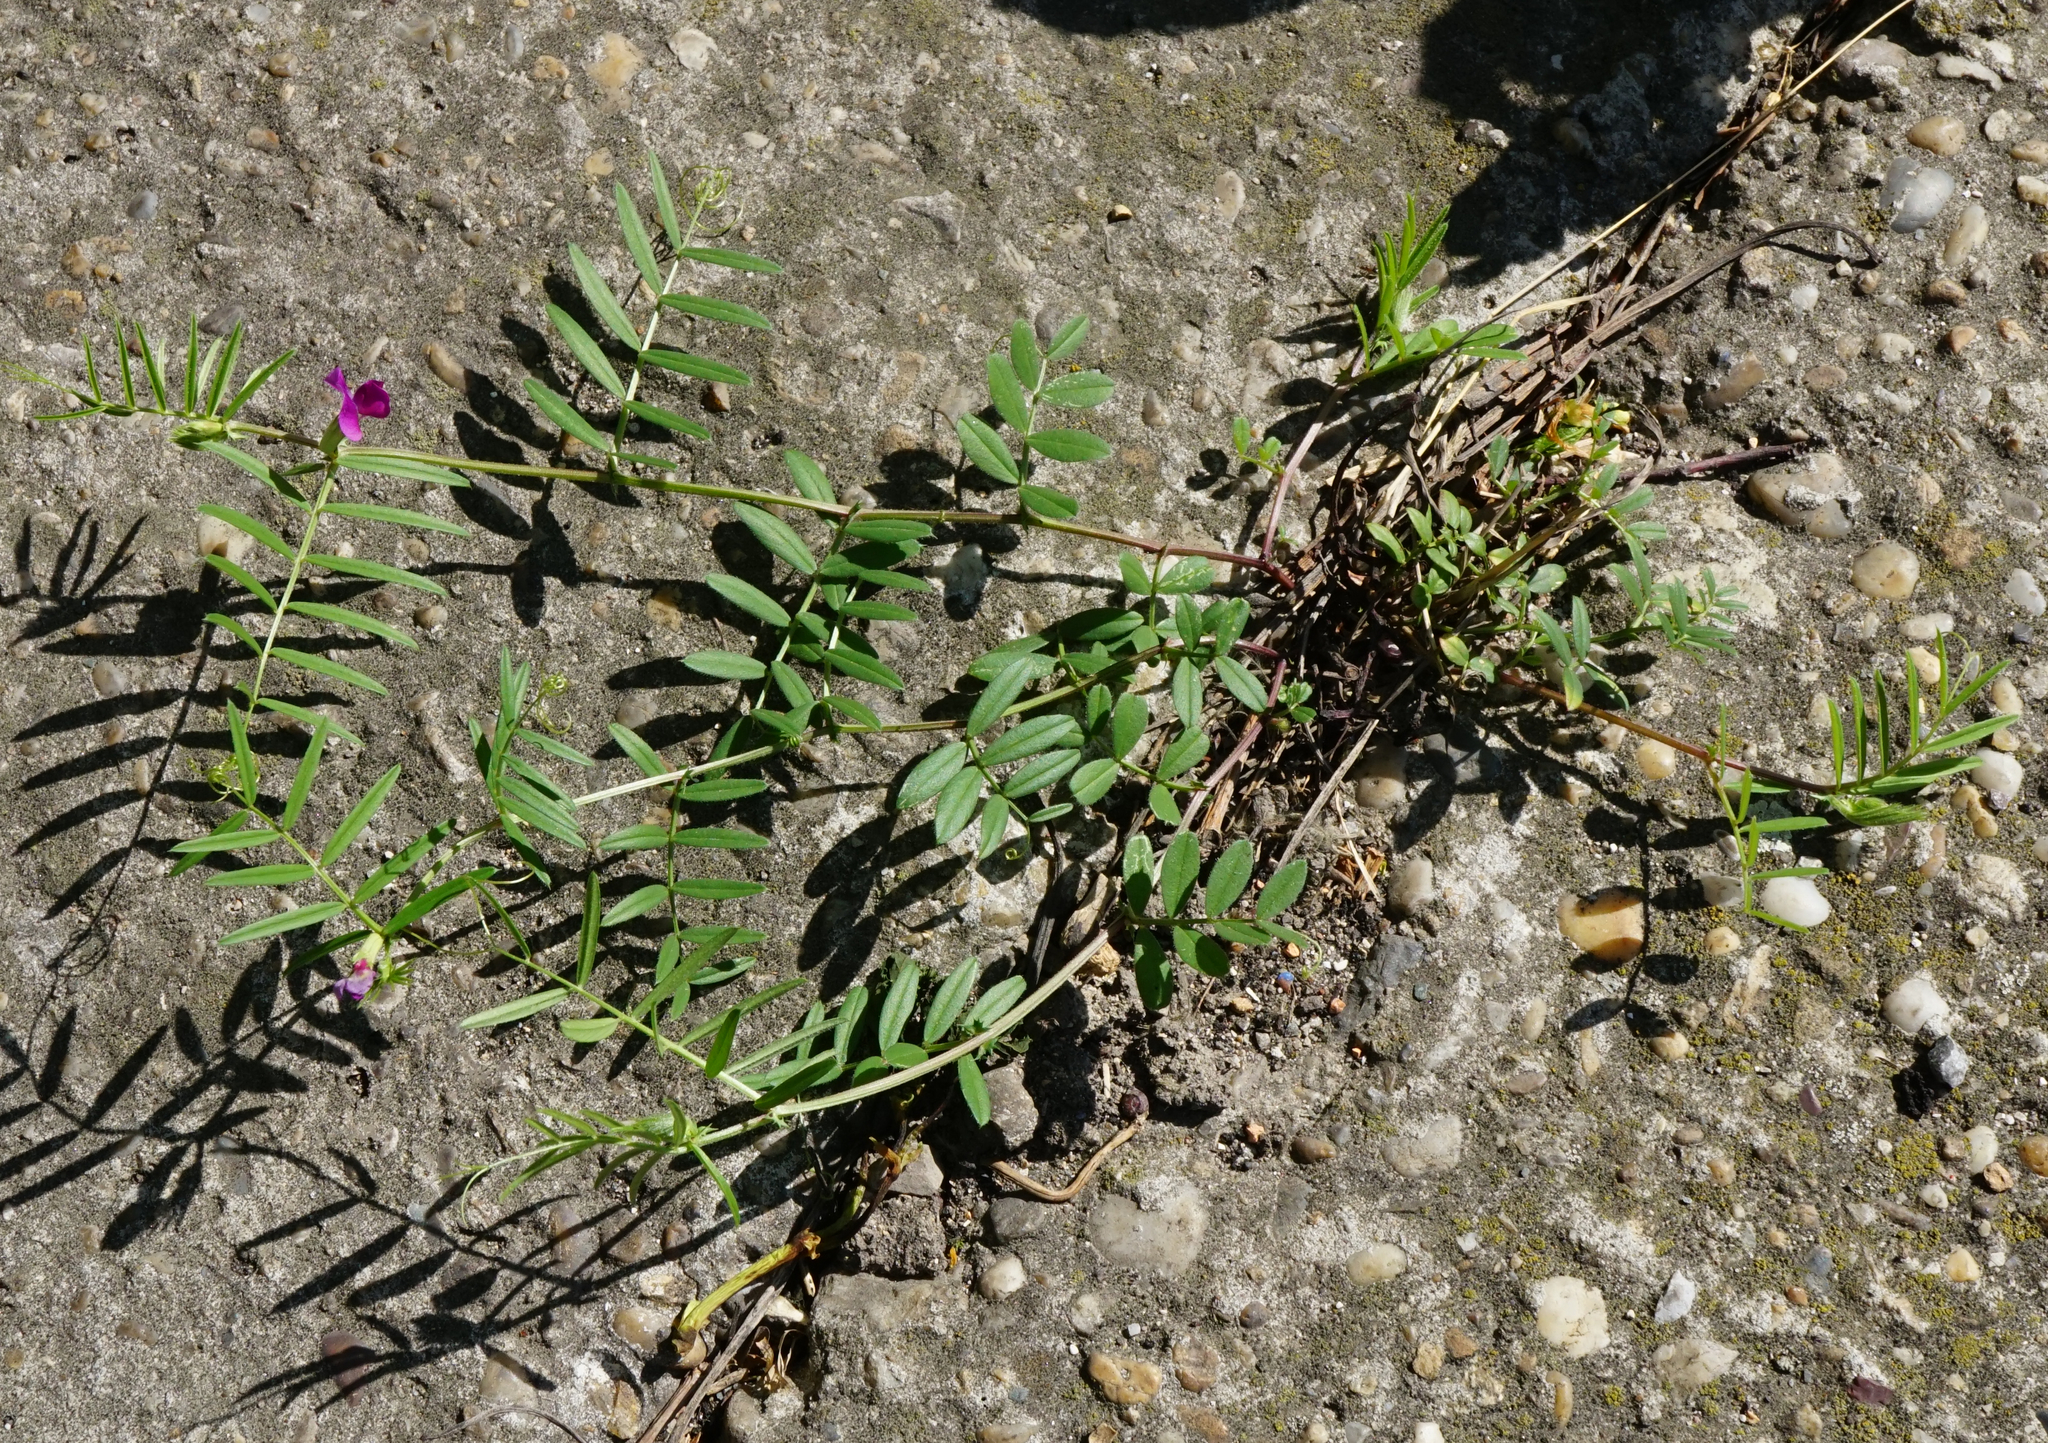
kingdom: Plantae
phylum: Tracheophyta
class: Magnoliopsida
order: Fabales
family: Fabaceae
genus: Vicia
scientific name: Vicia sativa
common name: Garden vetch
